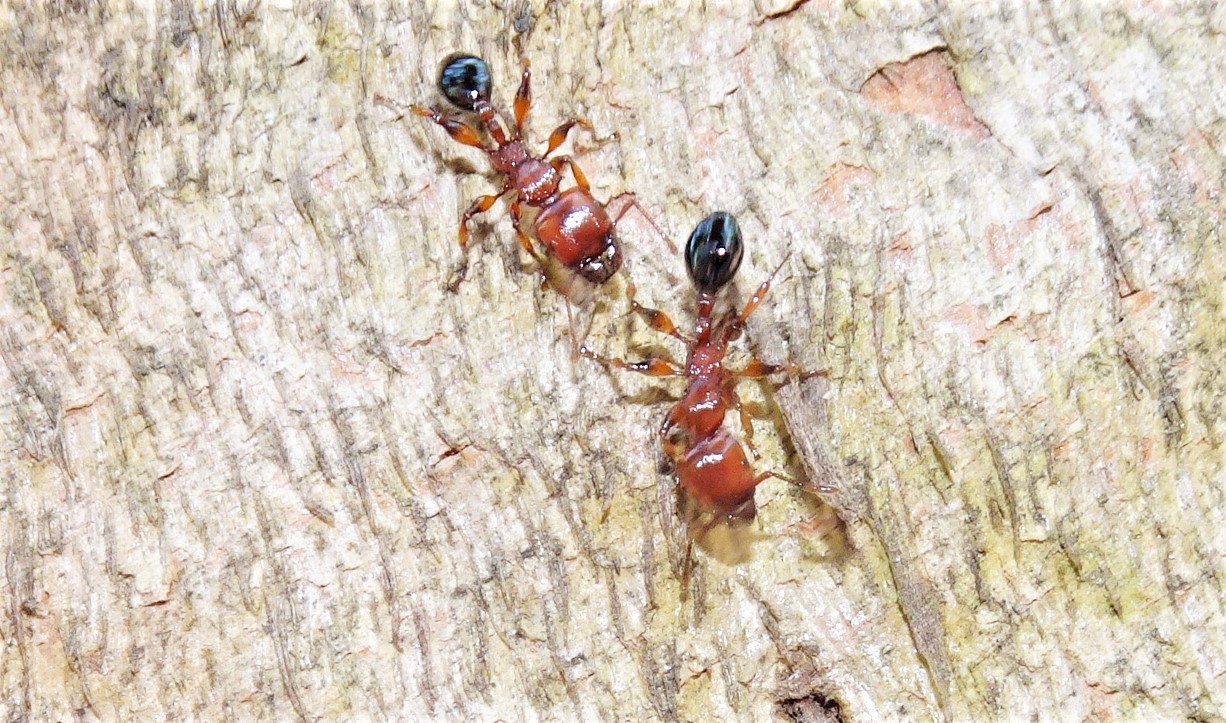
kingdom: Animalia
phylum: Arthropoda
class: Insecta
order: Hymenoptera
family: Formicidae
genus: Podomyrma
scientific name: Podomyrma gratiosa
